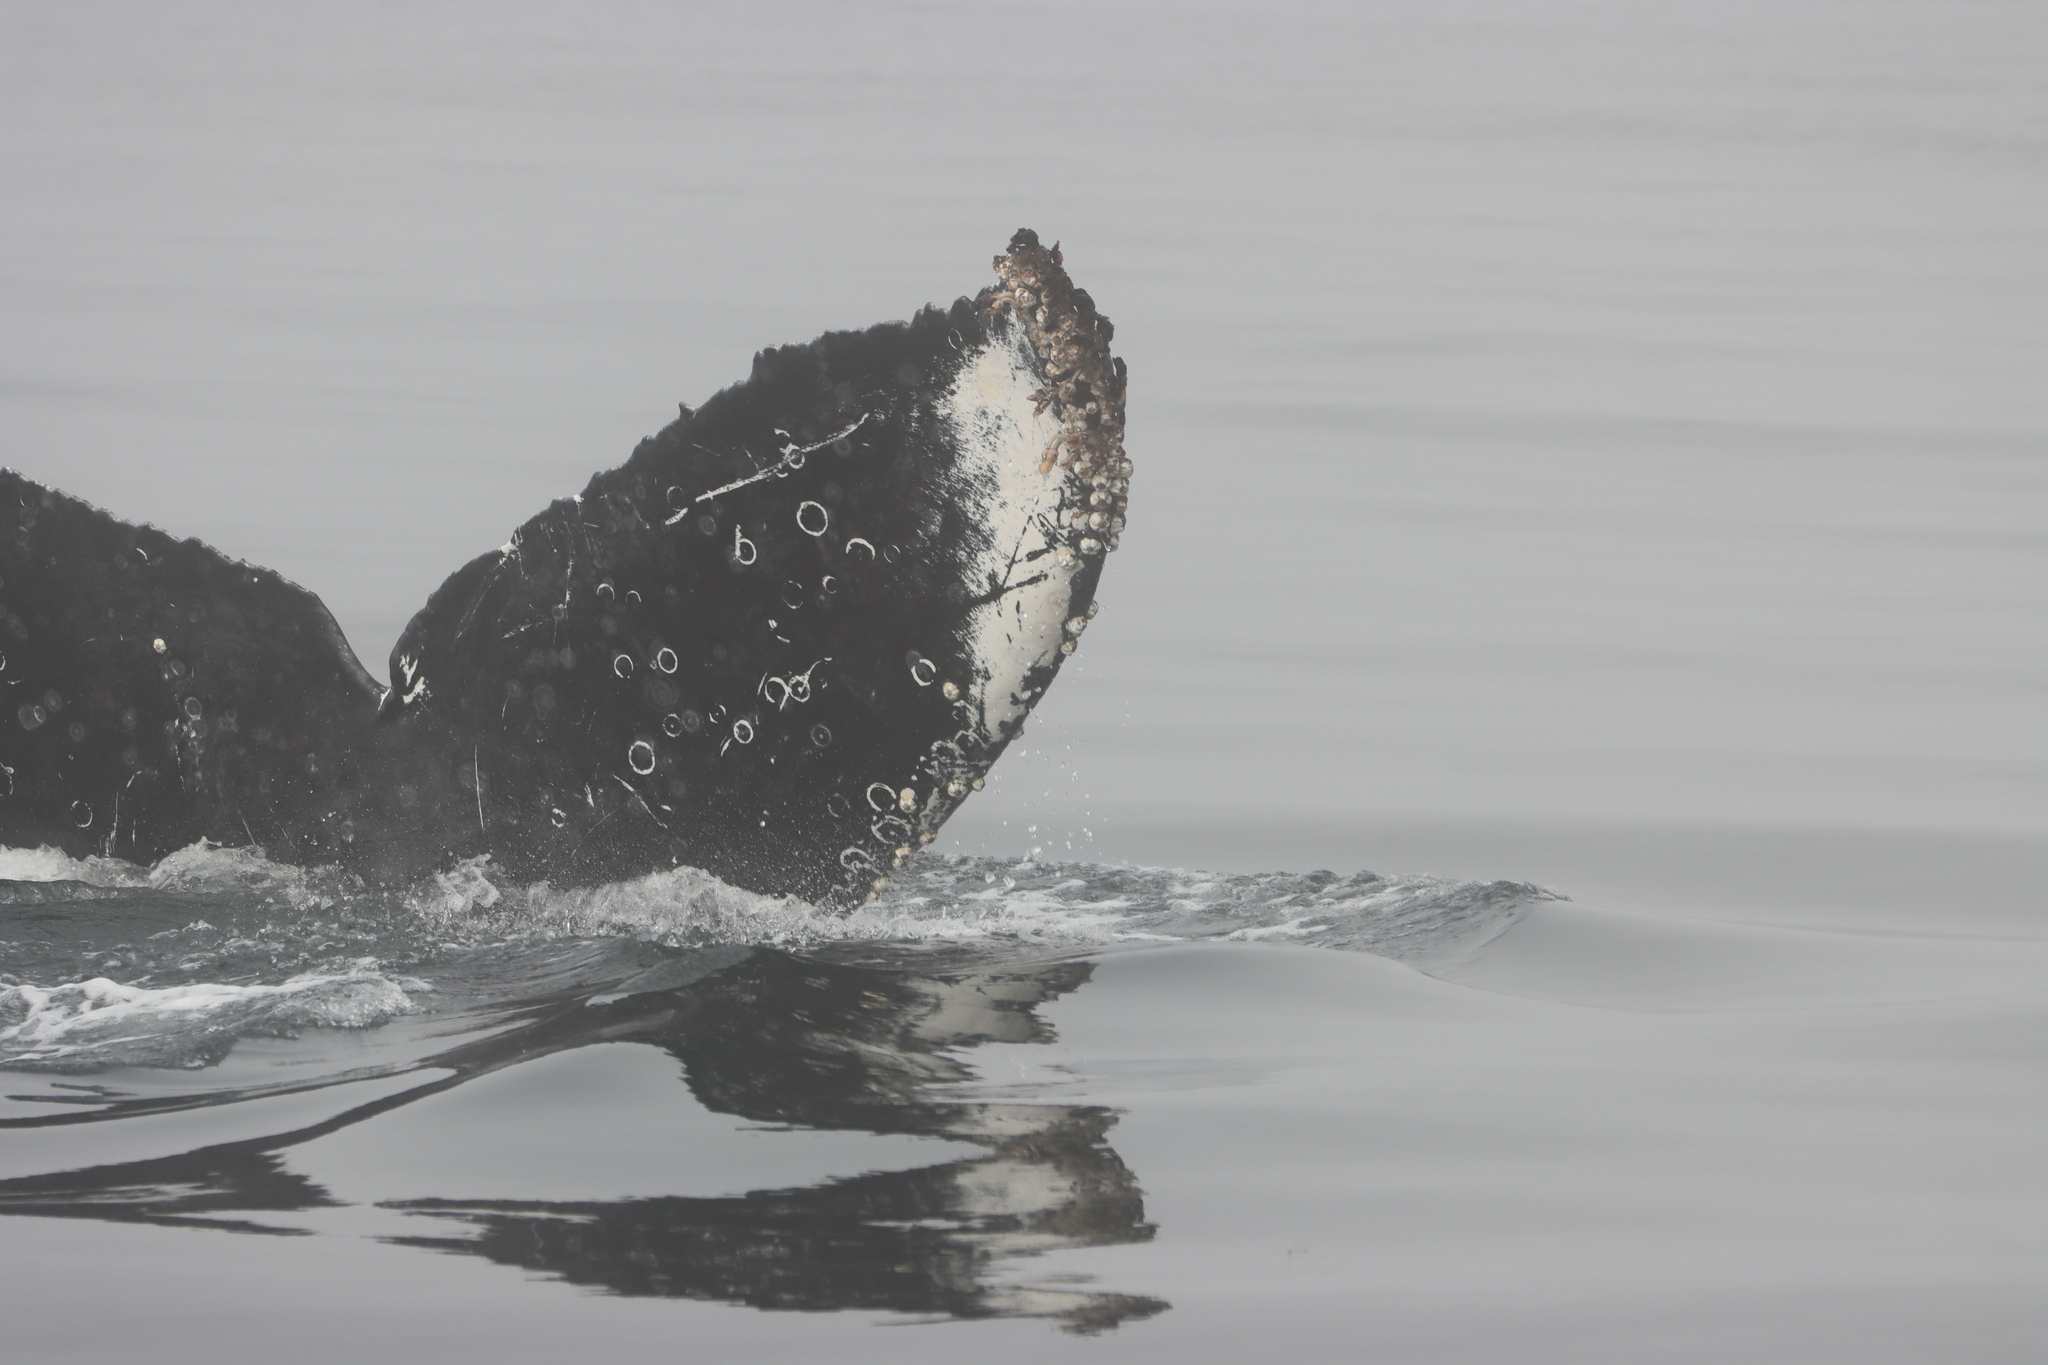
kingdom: Animalia
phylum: Chordata
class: Mammalia
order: Cetacea
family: Balaenopteridae
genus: Megaptera
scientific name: Megaptera novaeangliae
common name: Humpback whale
